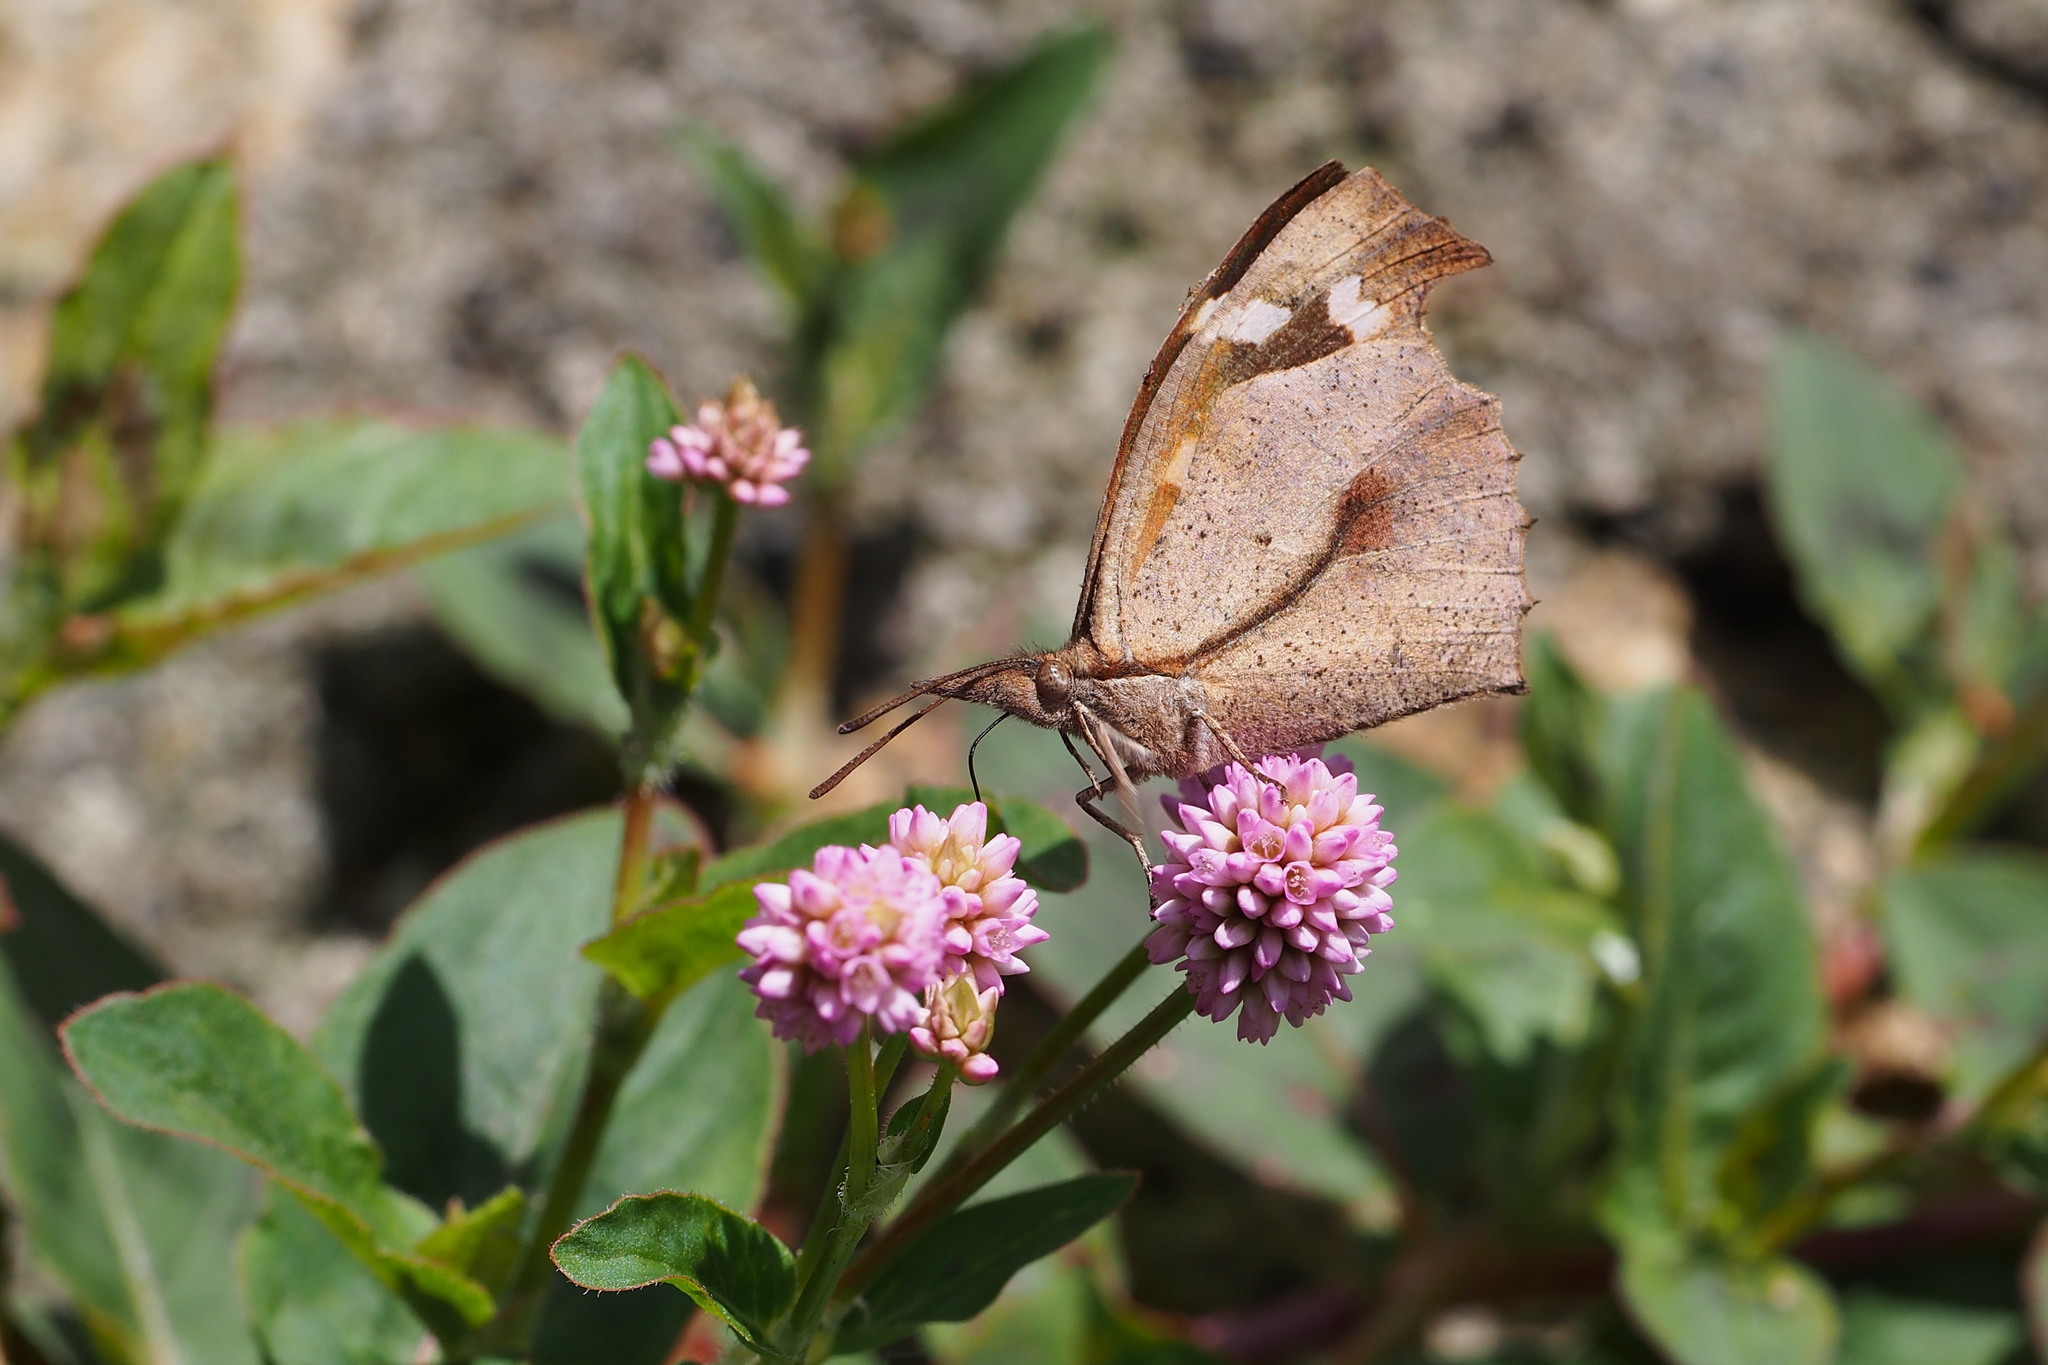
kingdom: Animalia
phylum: Arthropoda
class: Insecta
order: Lepidoptera
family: Nymphalidae
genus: Libythea
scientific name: Libythea lepita
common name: Common beak
